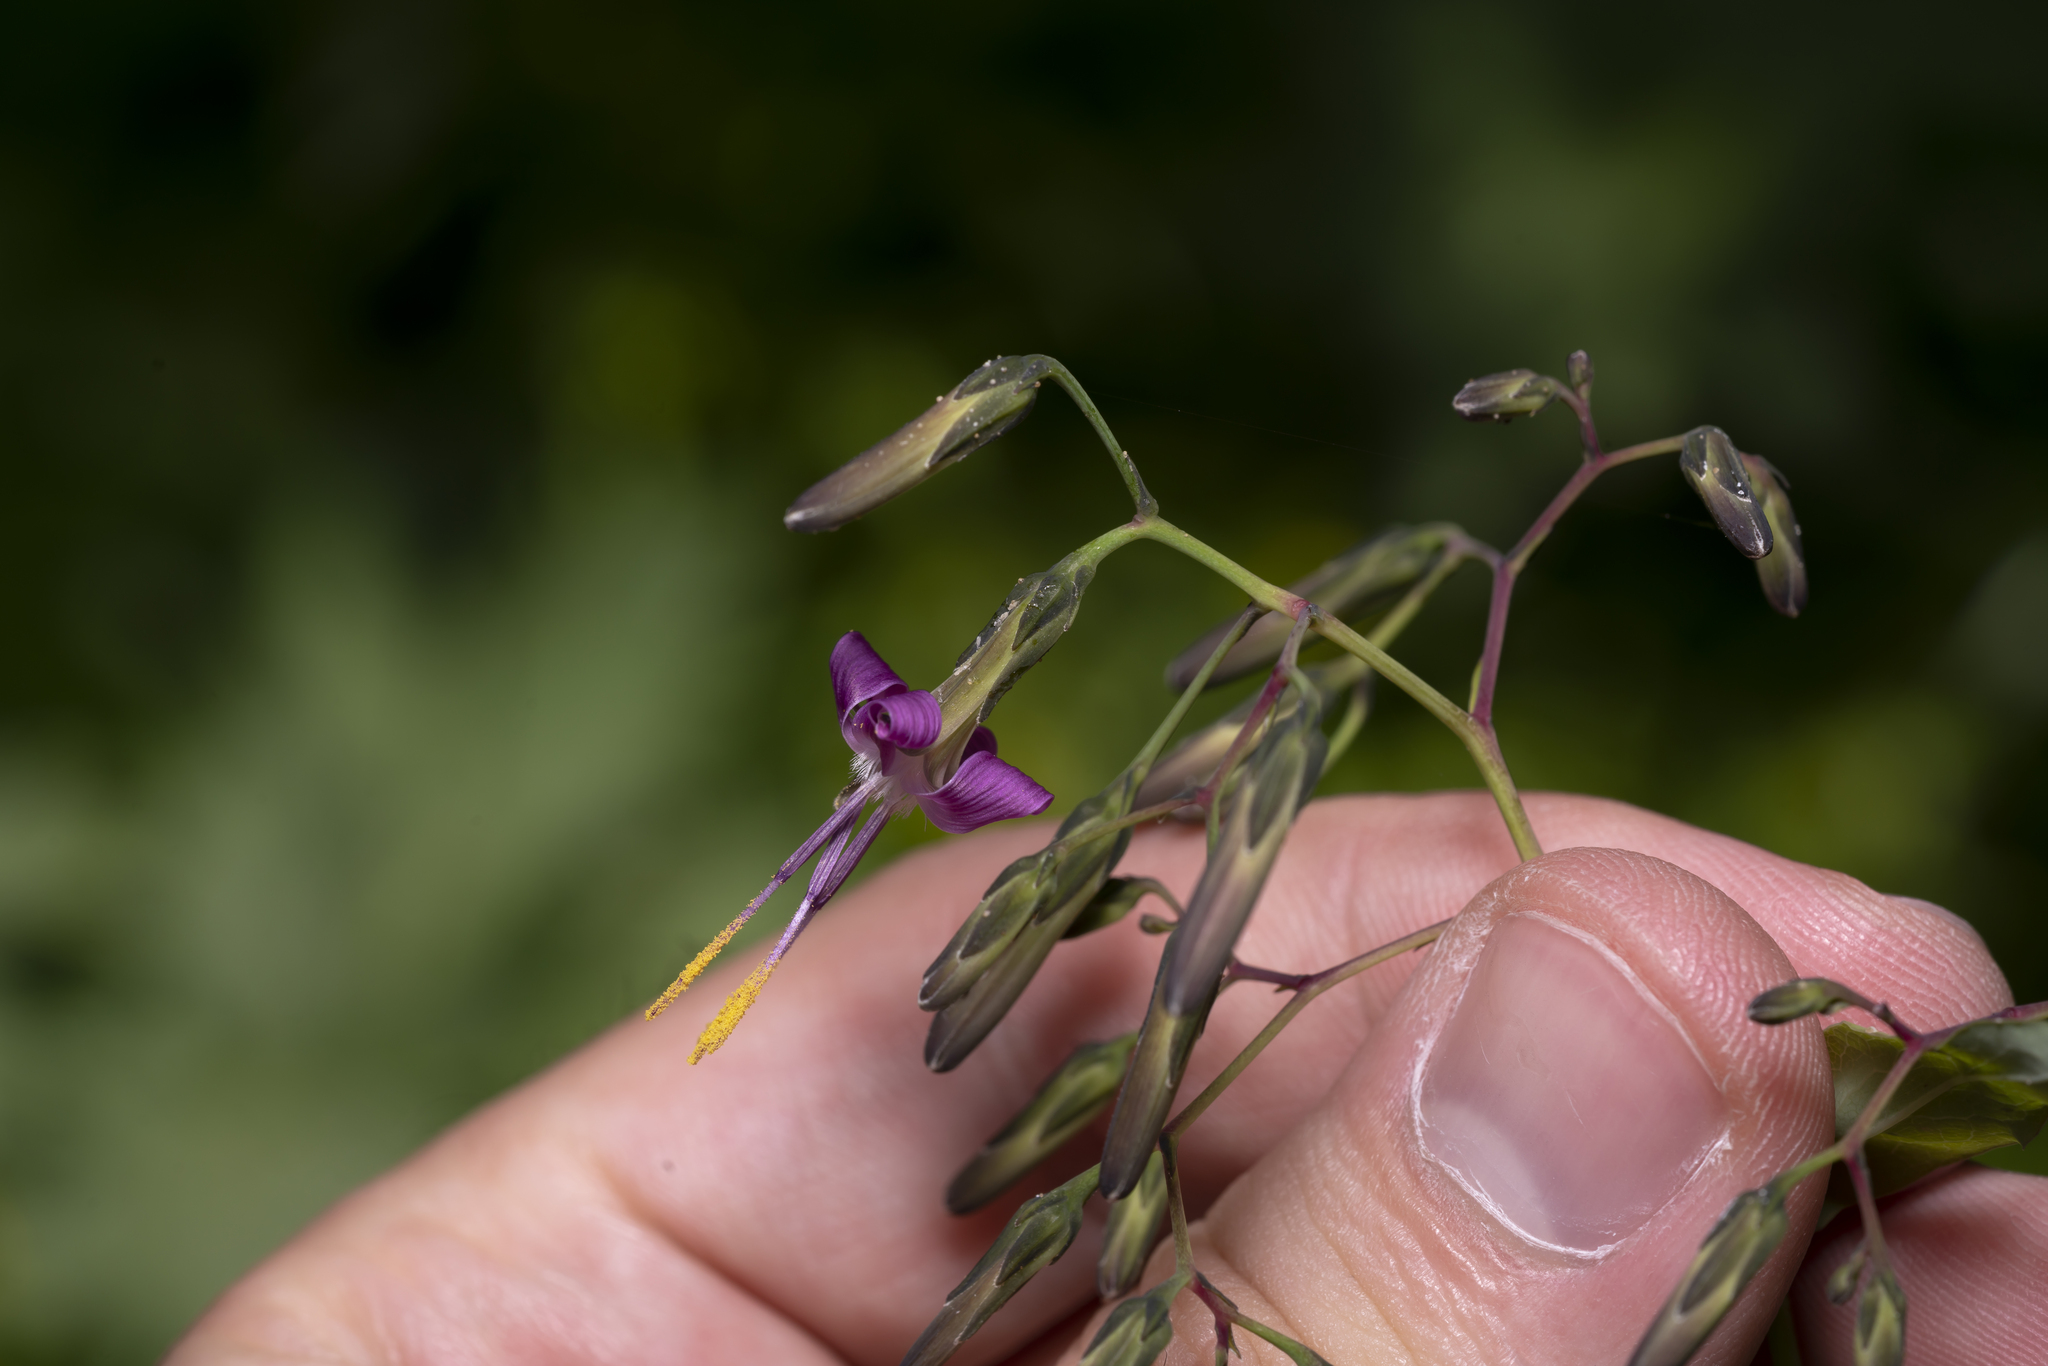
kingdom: Plantae
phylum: Tracheophyta
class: Magnoliopsida
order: Asterales
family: Asteraceae
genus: Prenanthes
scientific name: Prenanthes purpurea
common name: Purple lettuce
